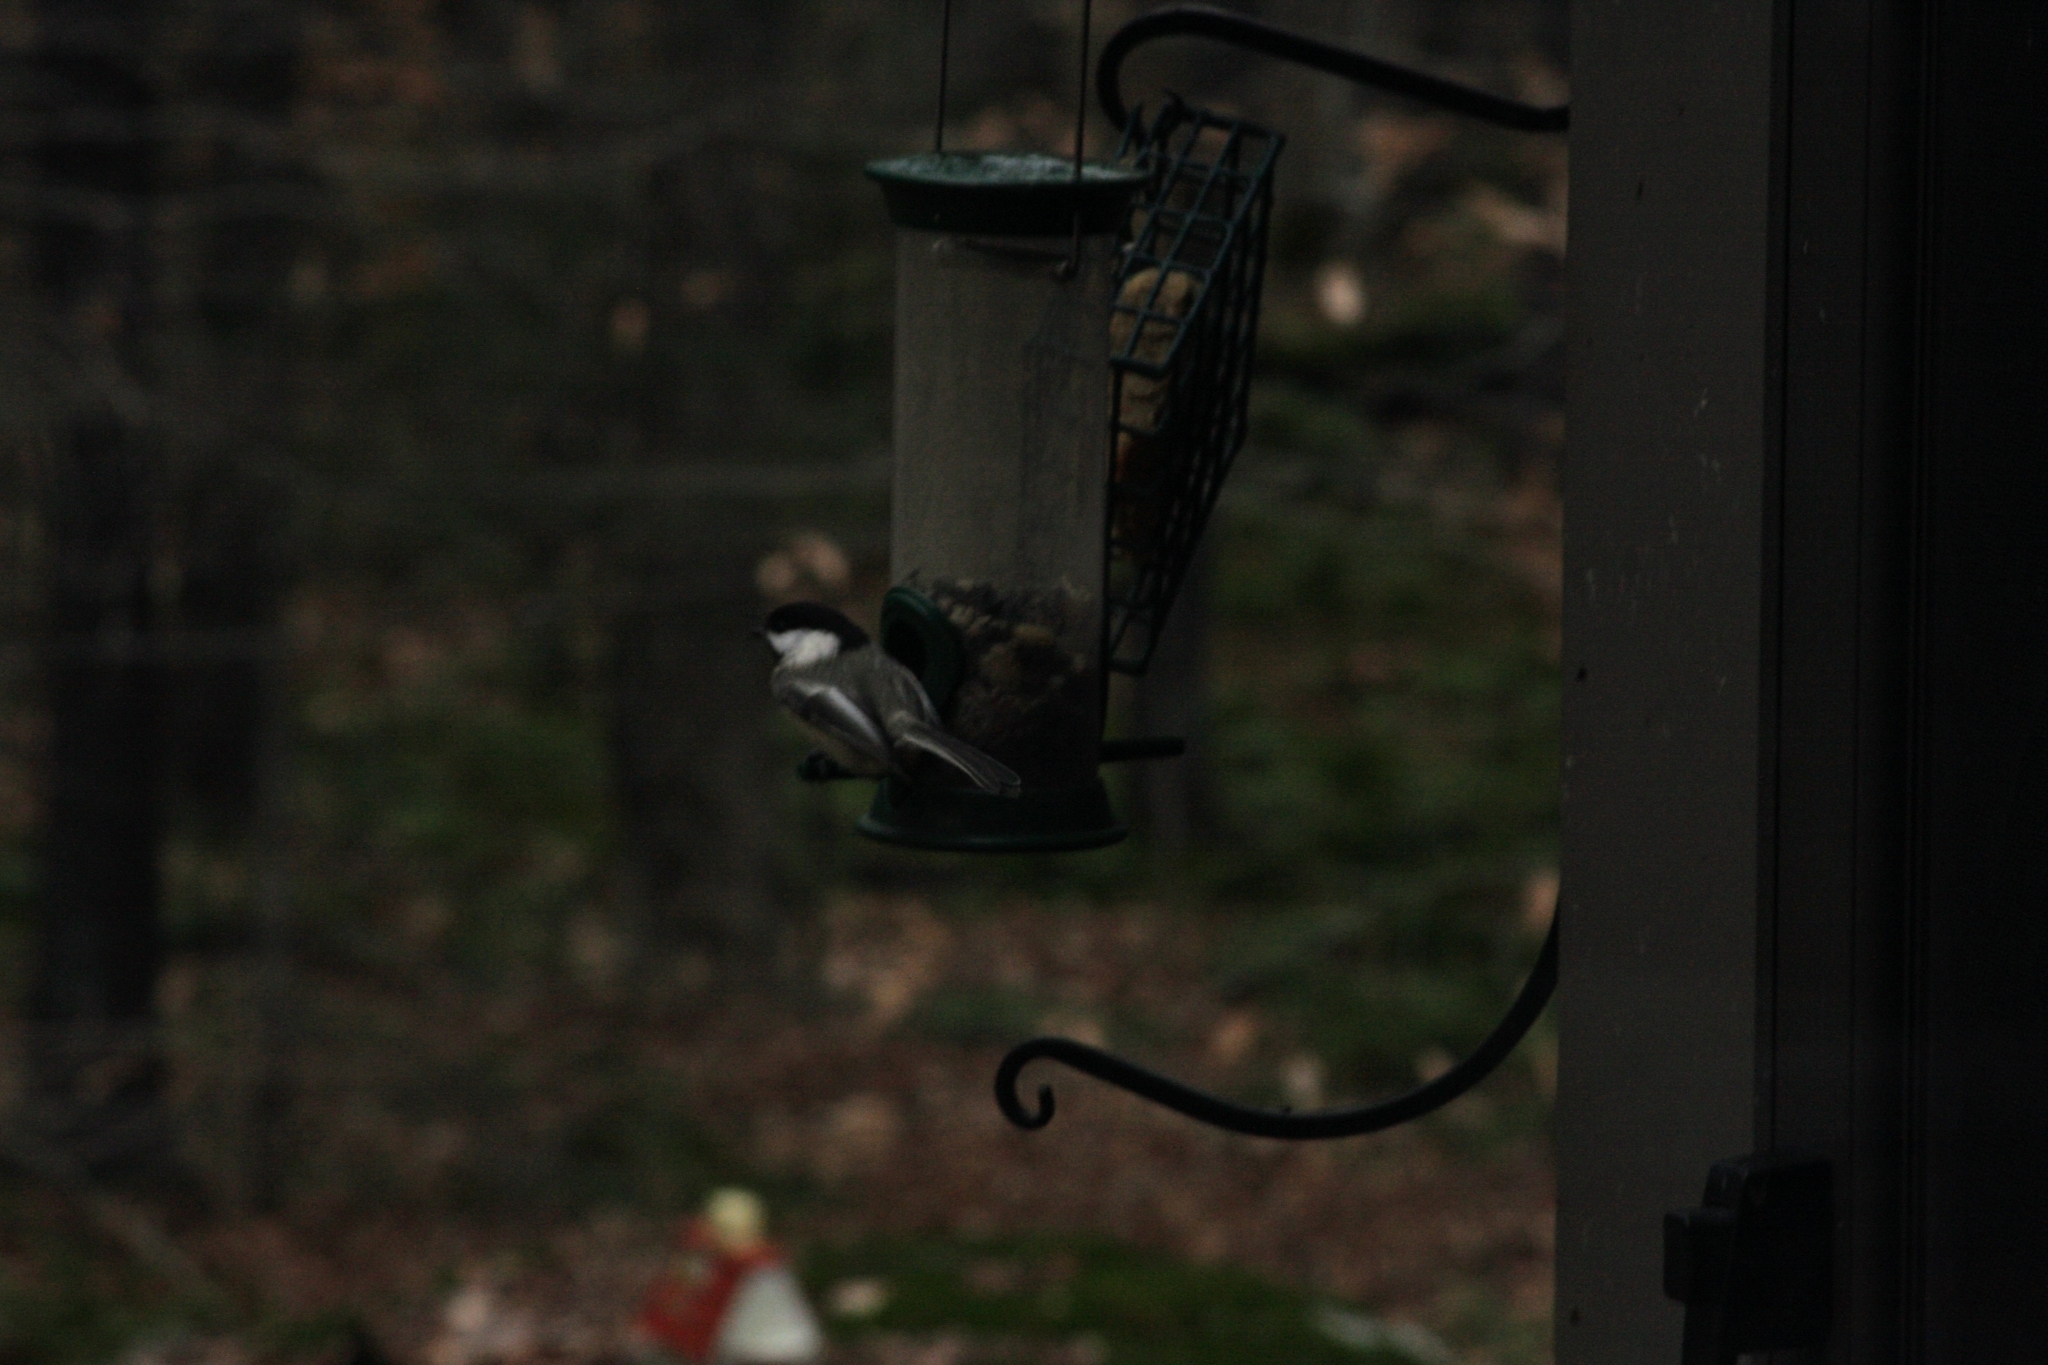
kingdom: Animalia
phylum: Chordata
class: Aves
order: Passeriformes
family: Paridae
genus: Poecile
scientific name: Poecile atricapillus
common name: Black-capped chickadee
